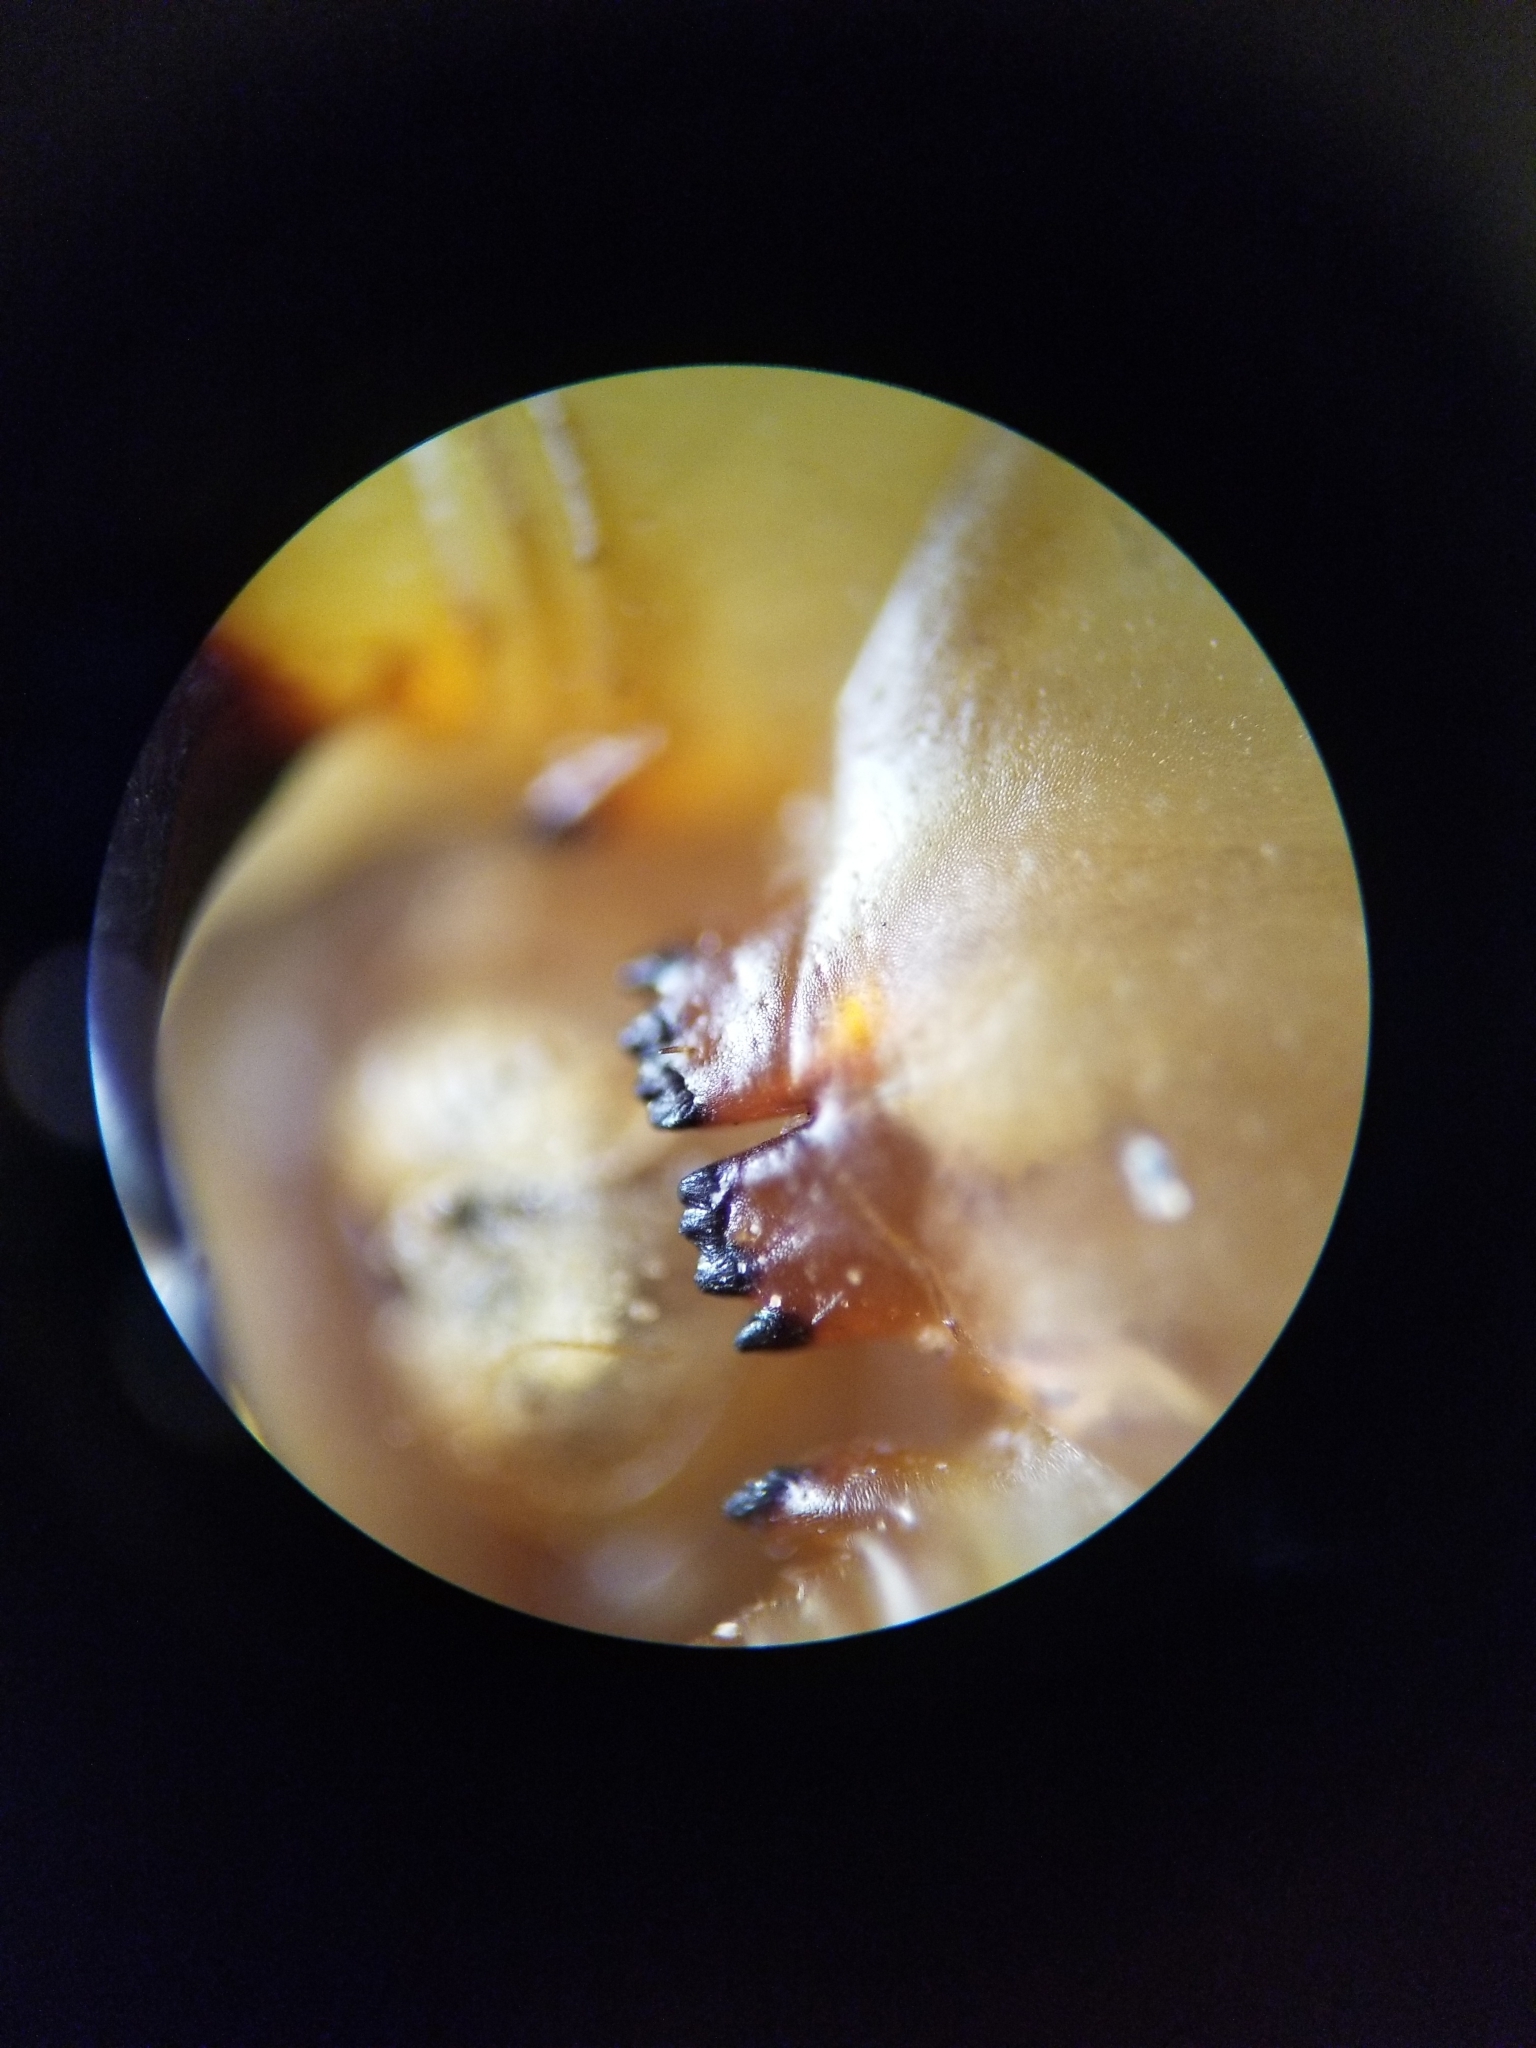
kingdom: Animalia
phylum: Arthropoda
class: Chilopoda
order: Scolopendromorpha
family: Scolopendridae
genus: Scolopendra
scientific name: Scolopendra viridis
